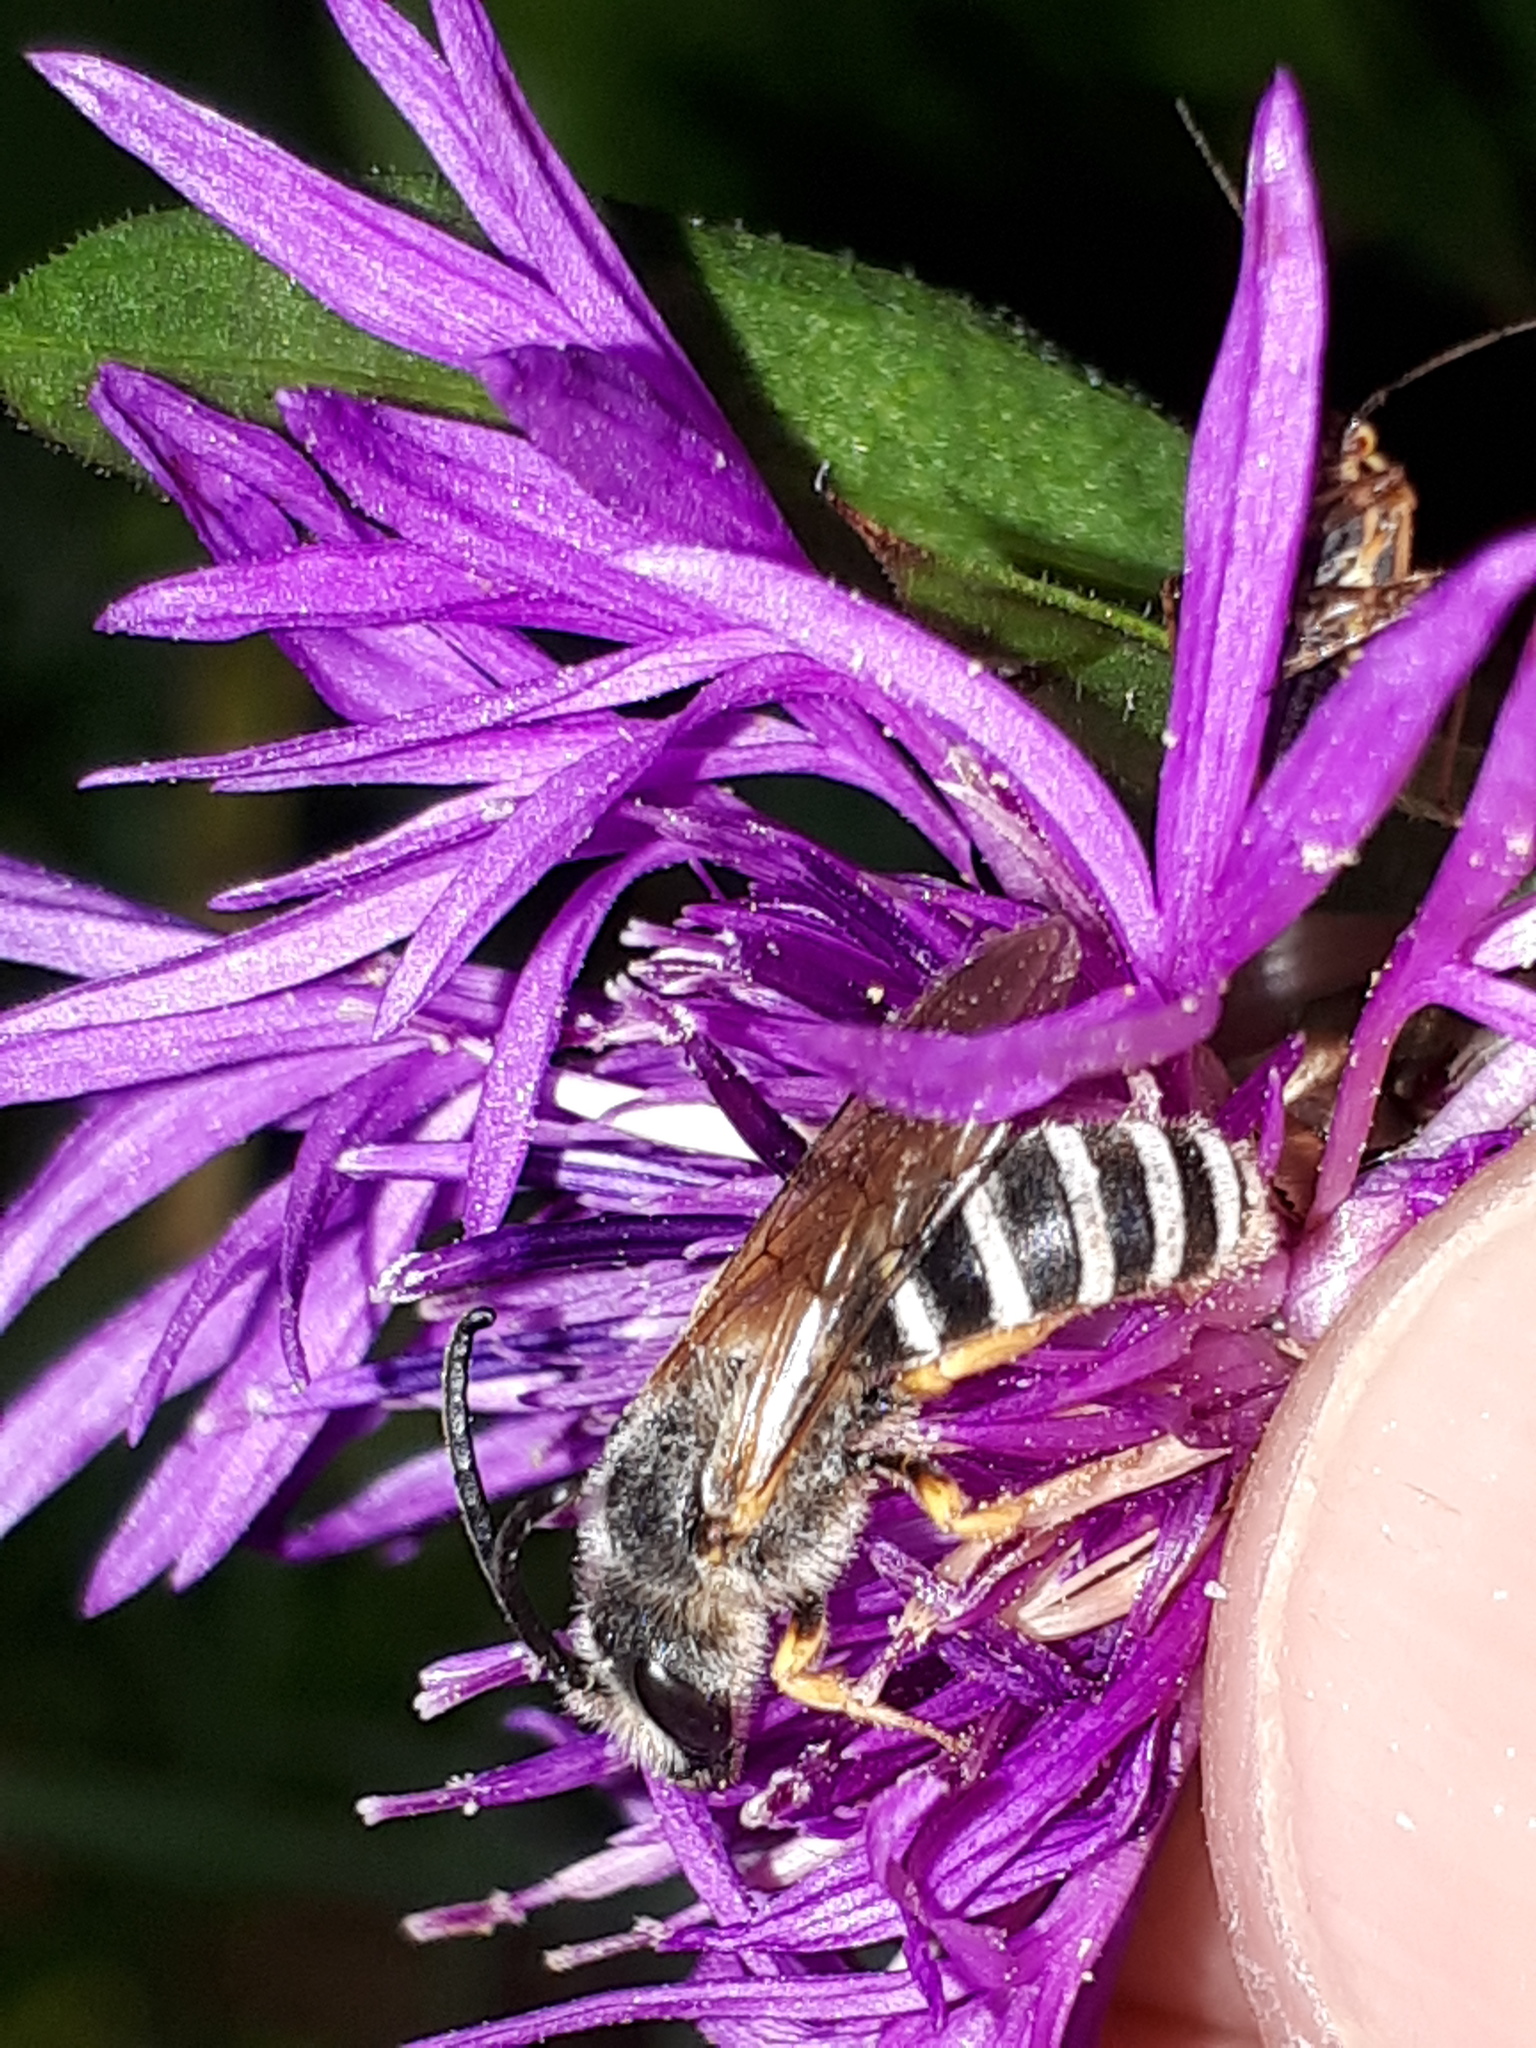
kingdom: Animalia
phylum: Arthropoda
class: Insecta
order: Hymenoptera
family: Halictidae
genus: Halictus
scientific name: Halictus scabiosae
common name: Great banded furrow bee
